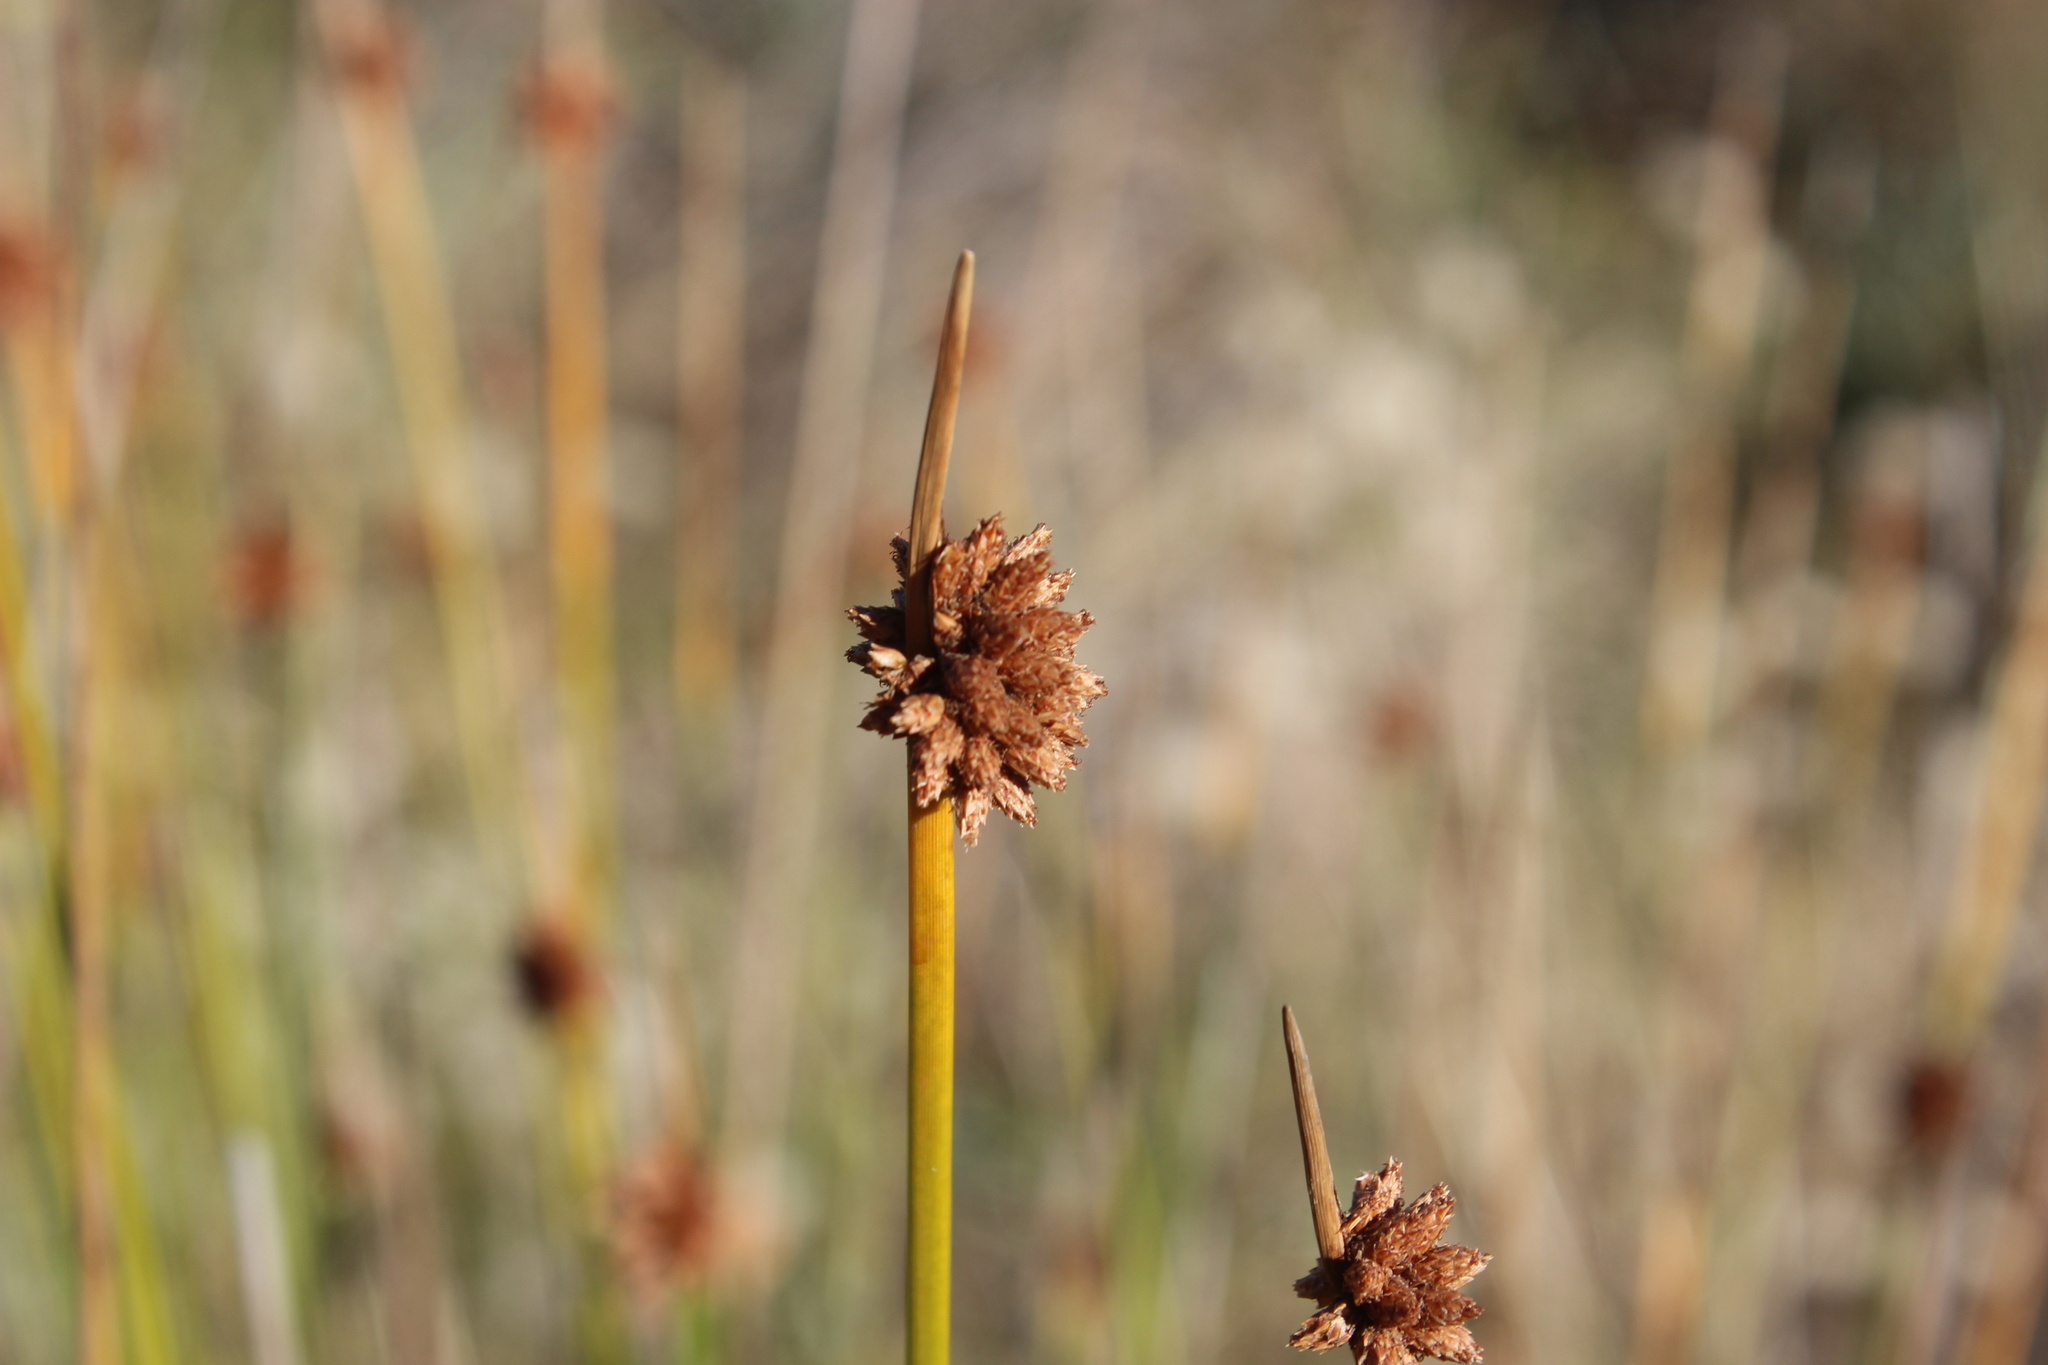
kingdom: Plantae
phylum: Tracheophyta
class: Liliopsida
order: Poales
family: Cyperaceae
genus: Ficinia
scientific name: Ficinia nodosa
